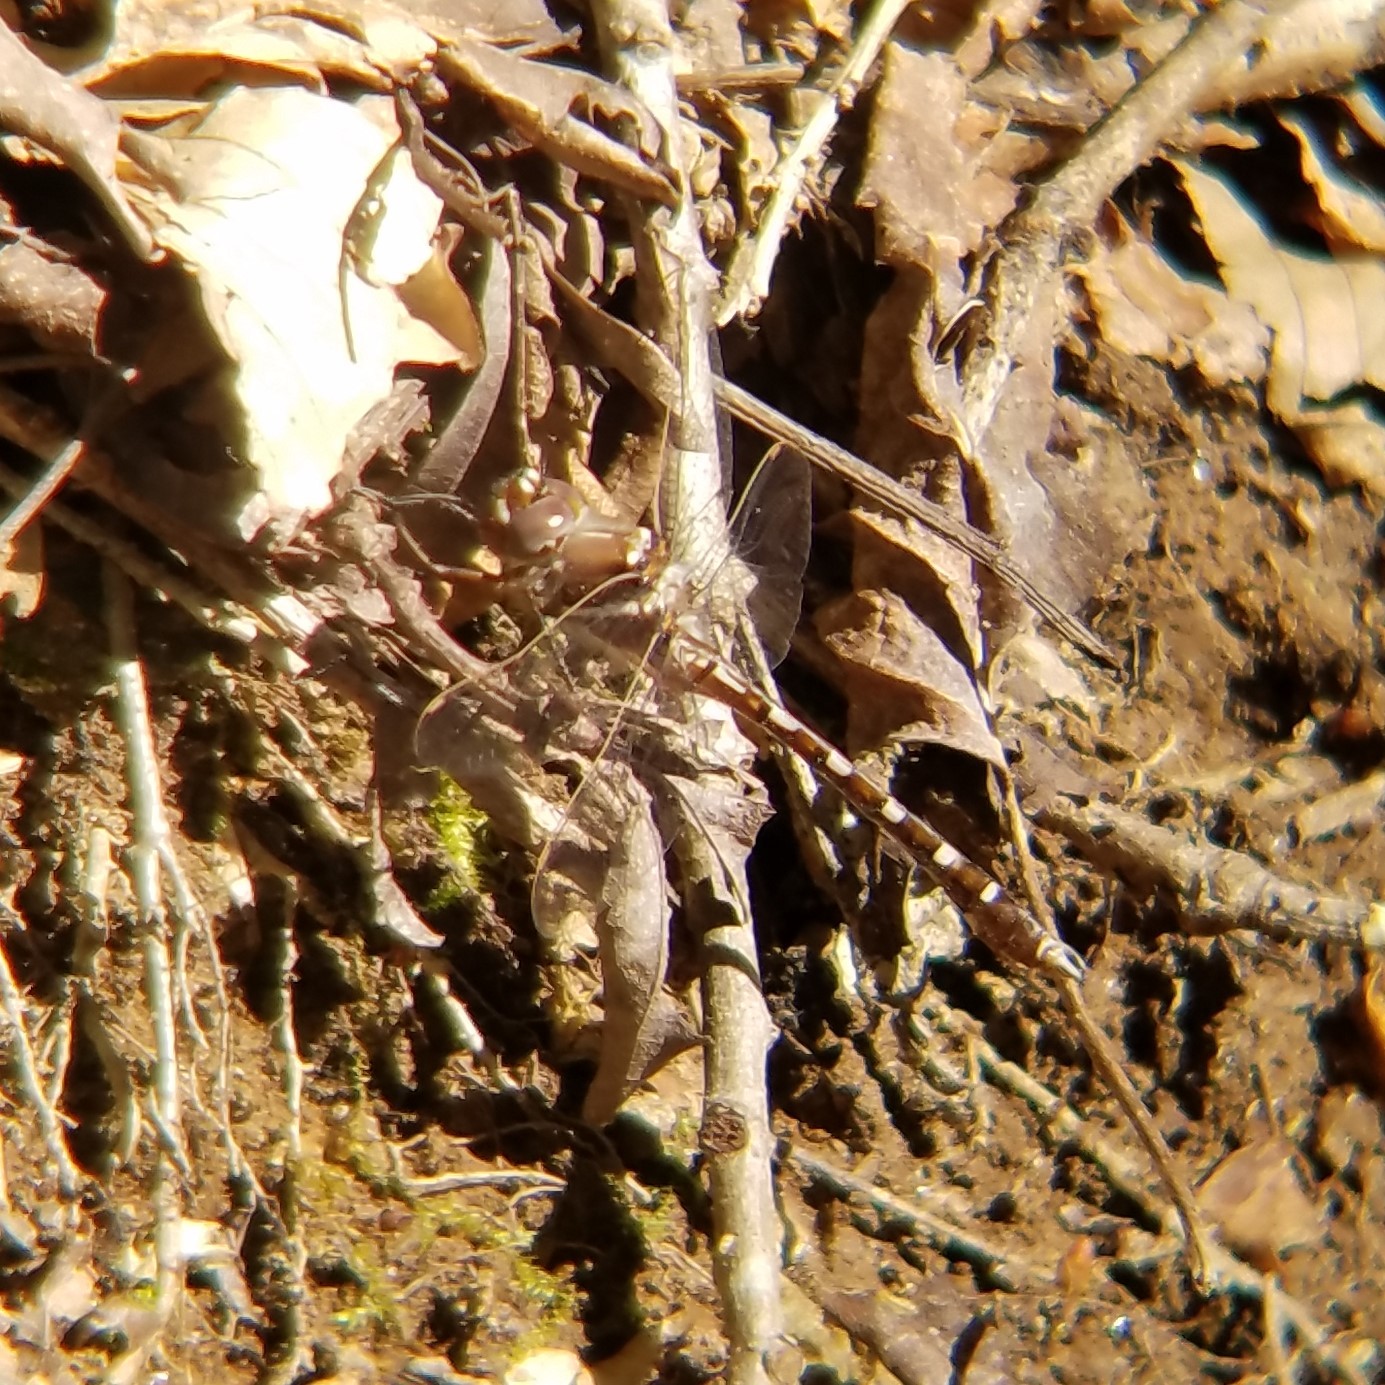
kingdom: Animalia
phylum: Arthropoda
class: Insecta
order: Odonata
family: Macromiidae
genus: Didymops
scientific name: Didymops transversa
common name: Stream cruiser
